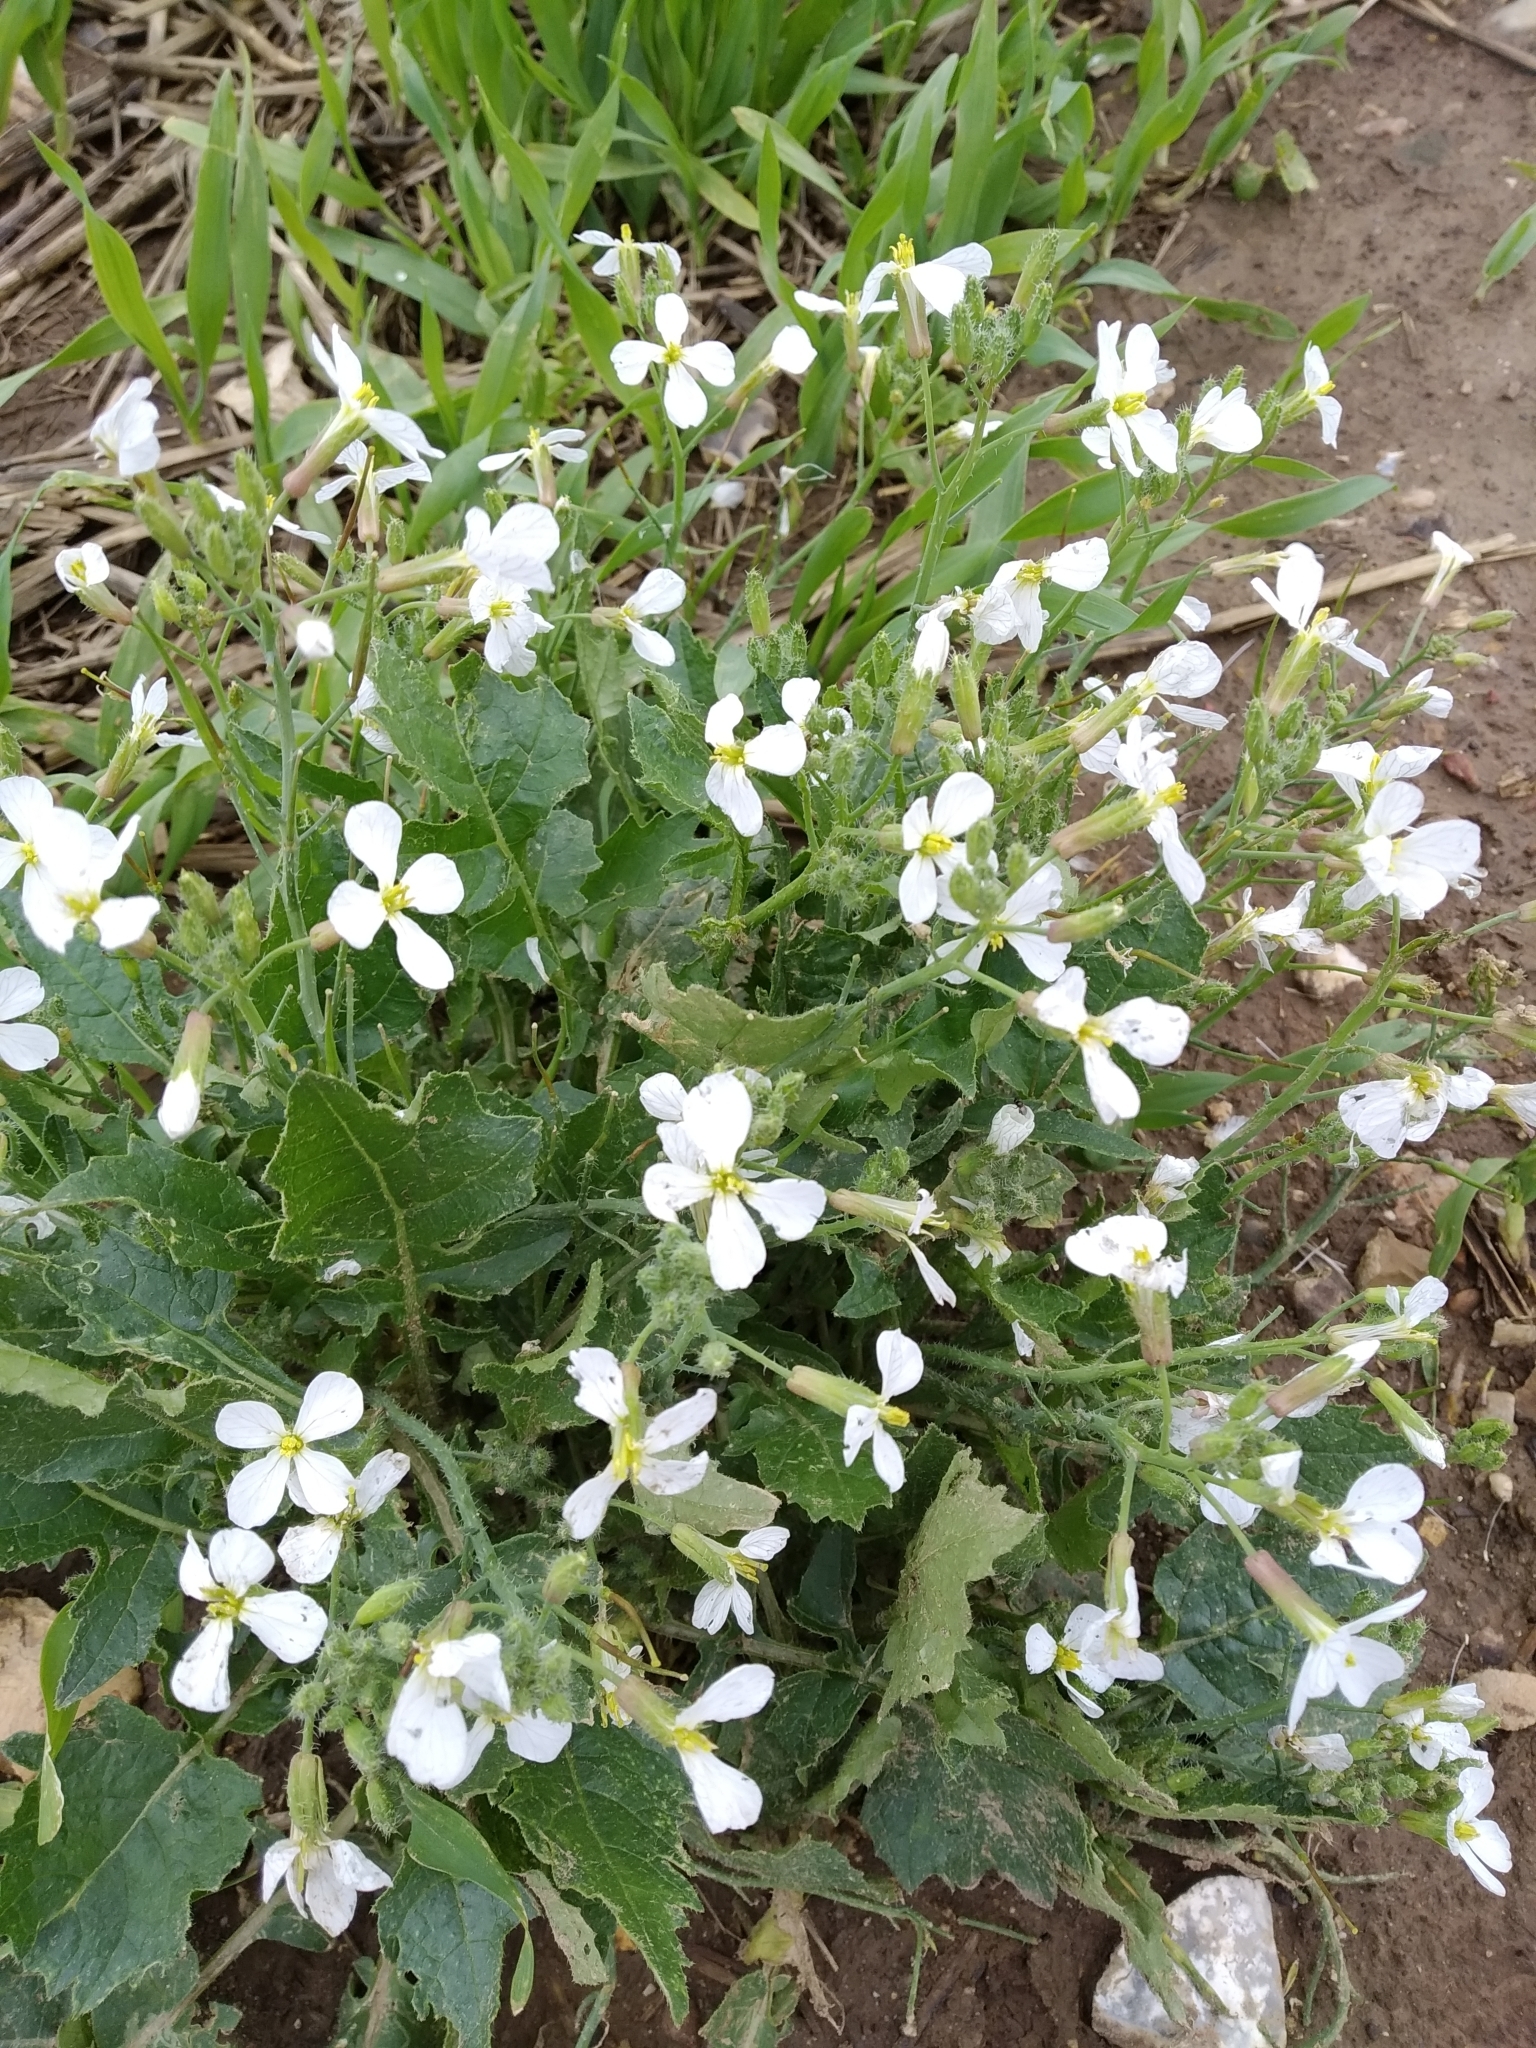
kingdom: Plantae
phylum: Tracheophyta
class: Magnoliopsida
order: Brassicales
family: Brassicaceae
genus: Raphanus
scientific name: Raphanus raphanistrum
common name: Wild radish
